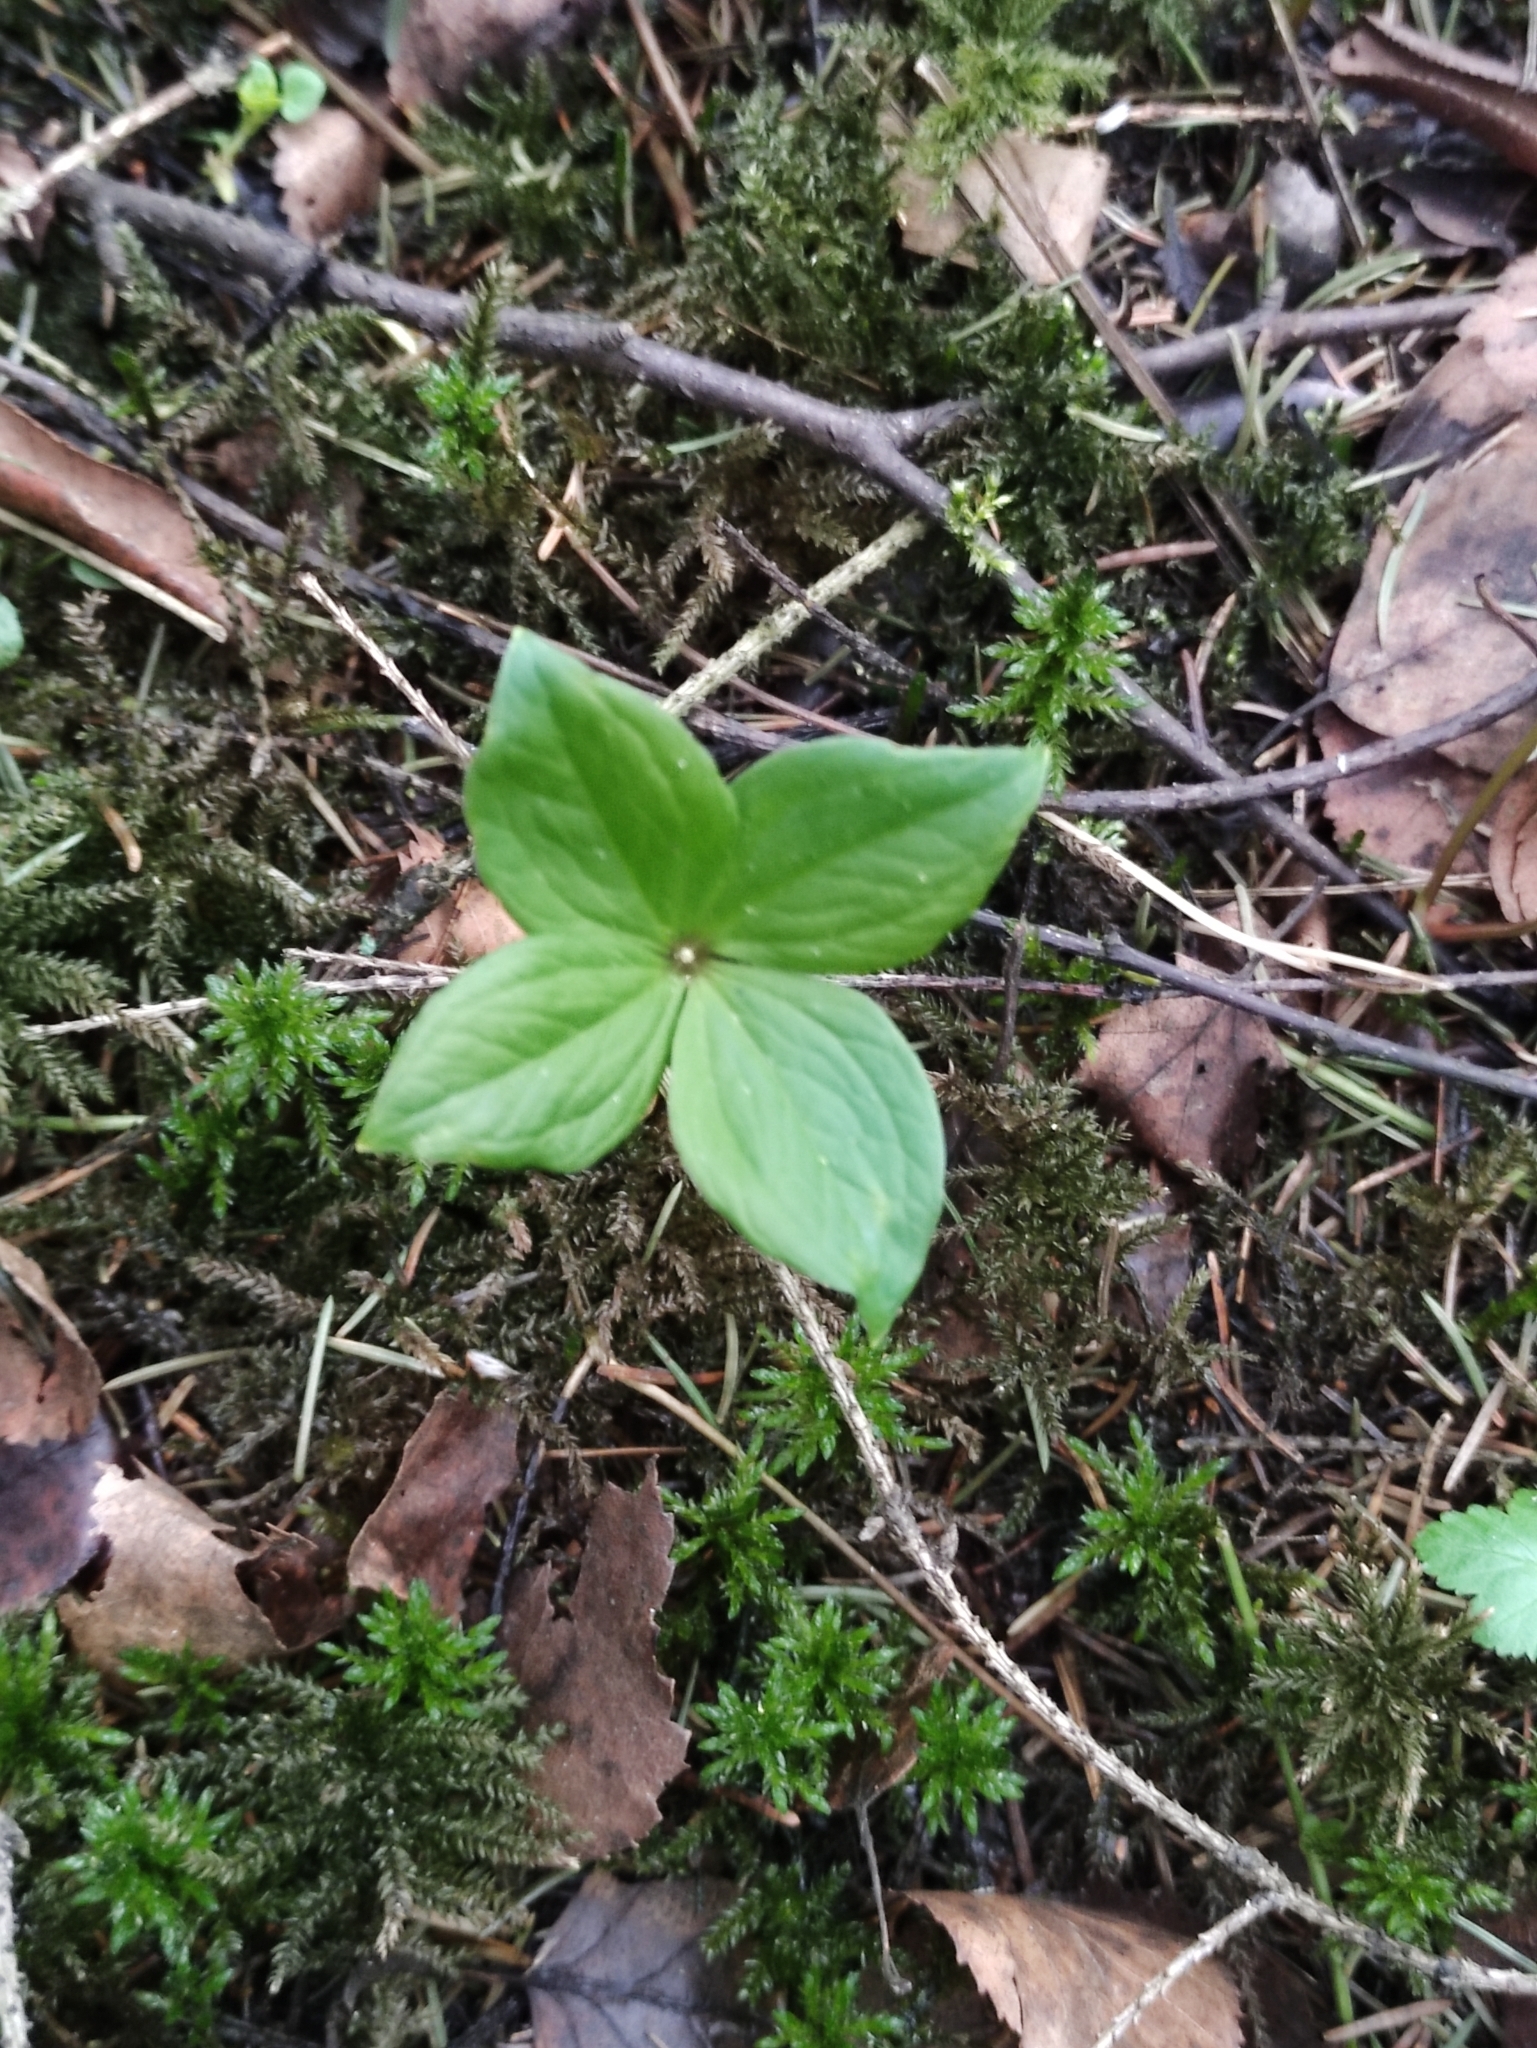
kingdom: Plantae
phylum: Tracheophyta
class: Liliopsida
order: Liliales
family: Melanthiaceae
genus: Paris
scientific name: Paris quadrifolia
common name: Herb-paris
